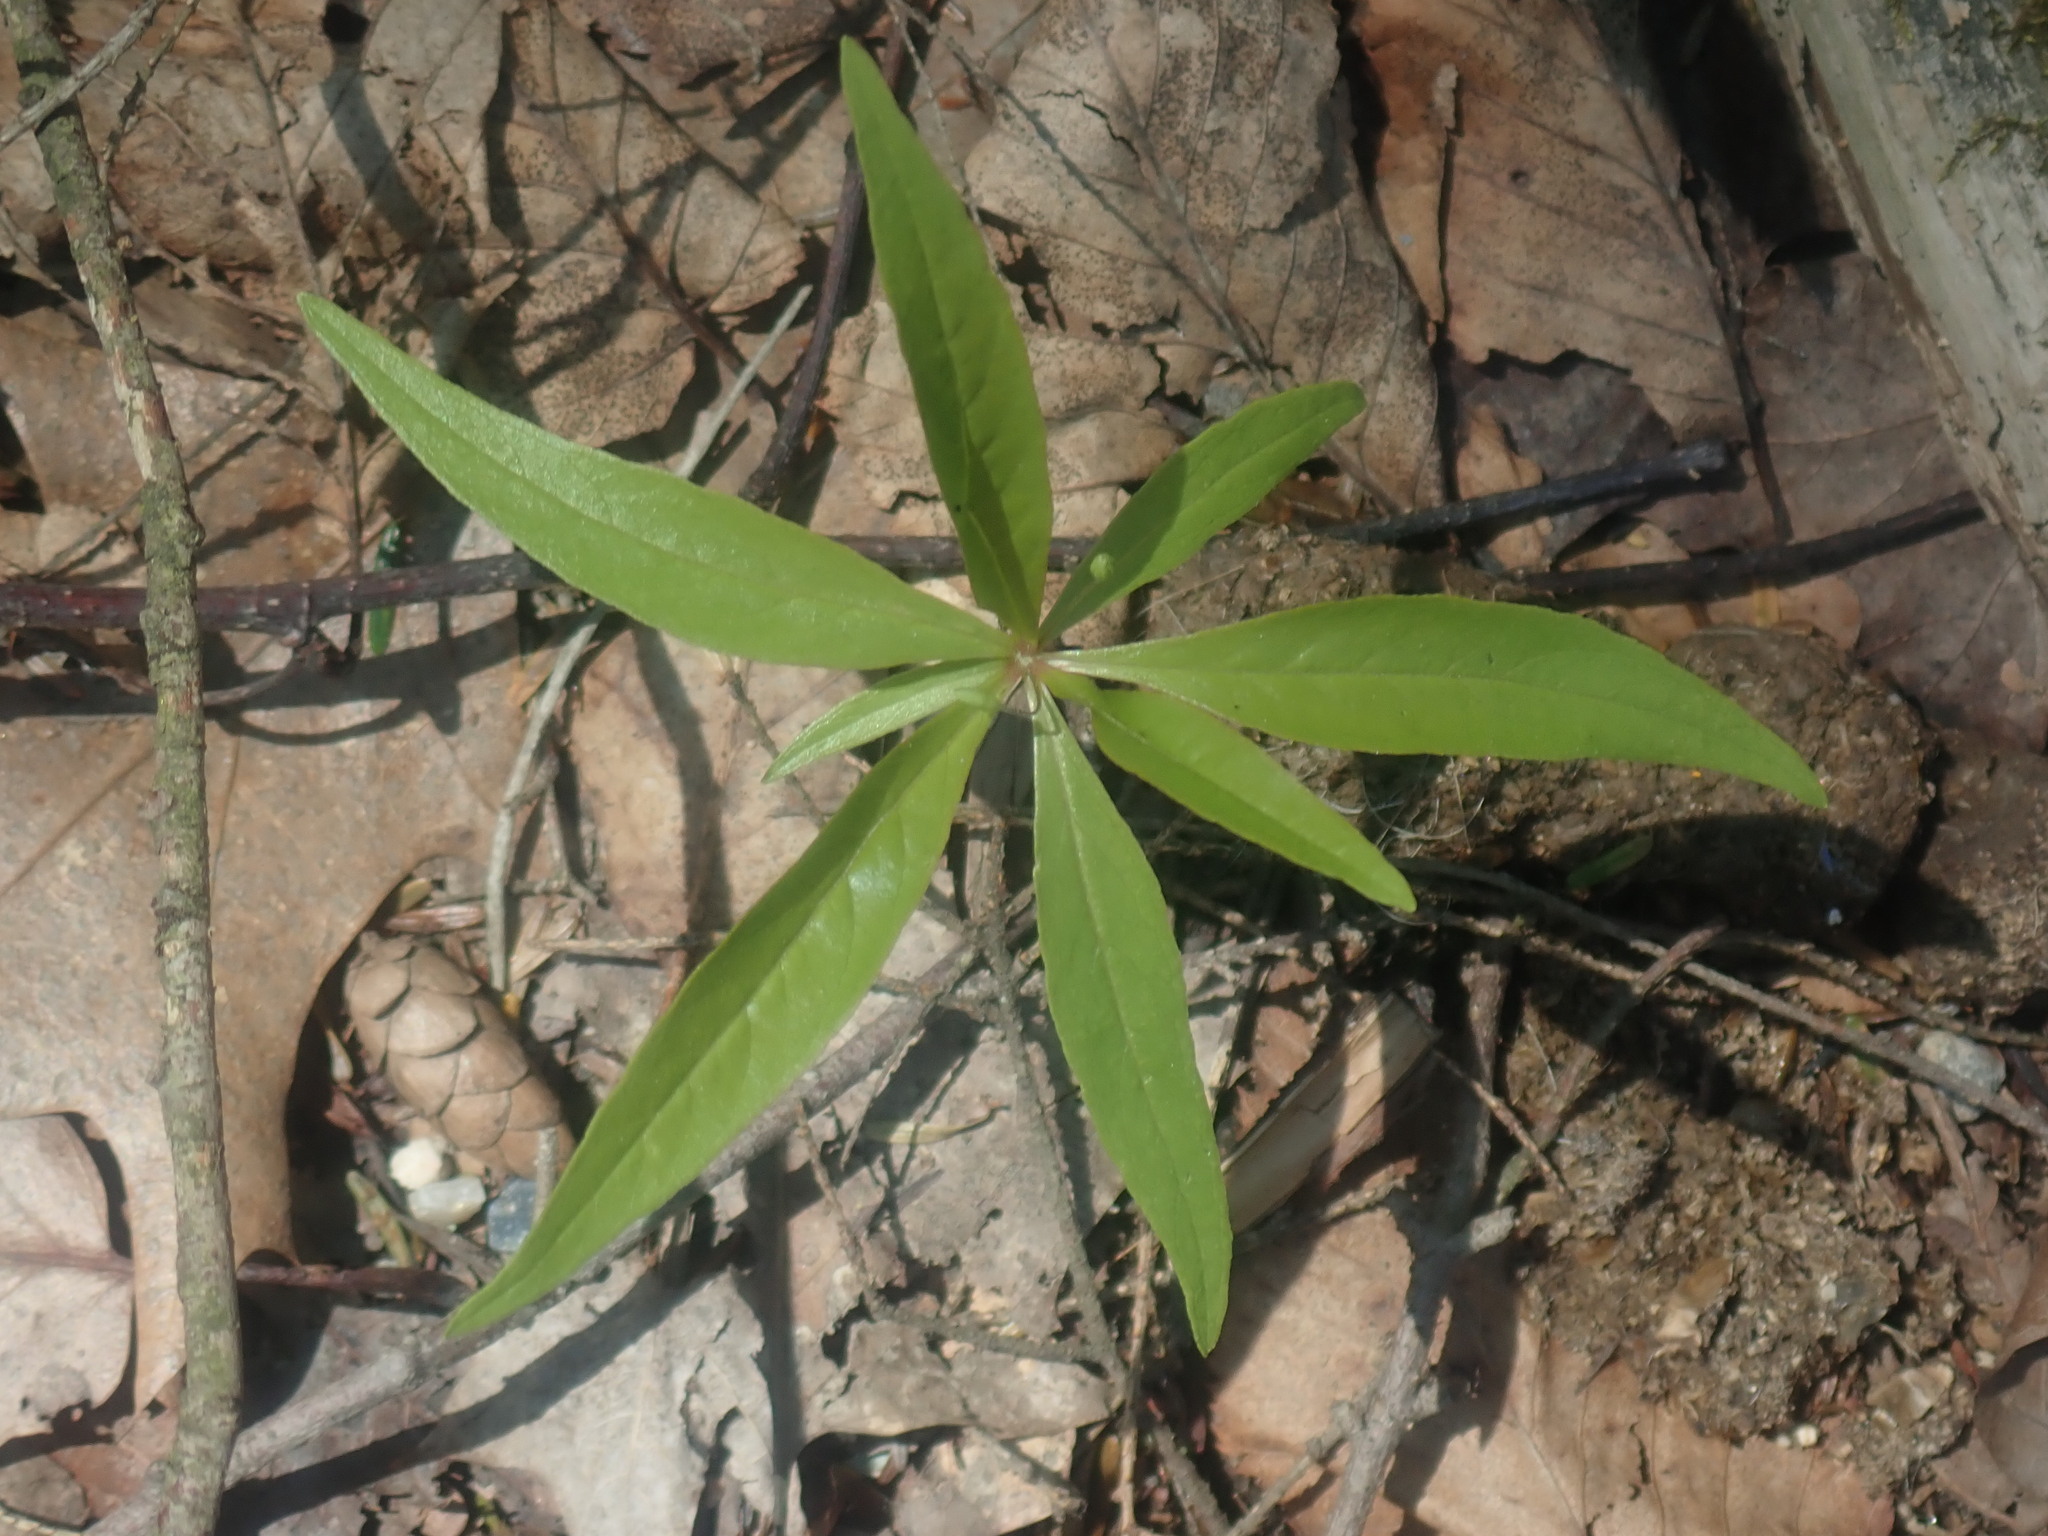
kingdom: Plantae
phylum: Tracheophyta
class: Magnoliopsida
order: Ericales
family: Primulaceae
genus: Lysimachia
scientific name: Lysimachia borealis
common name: American starflower
